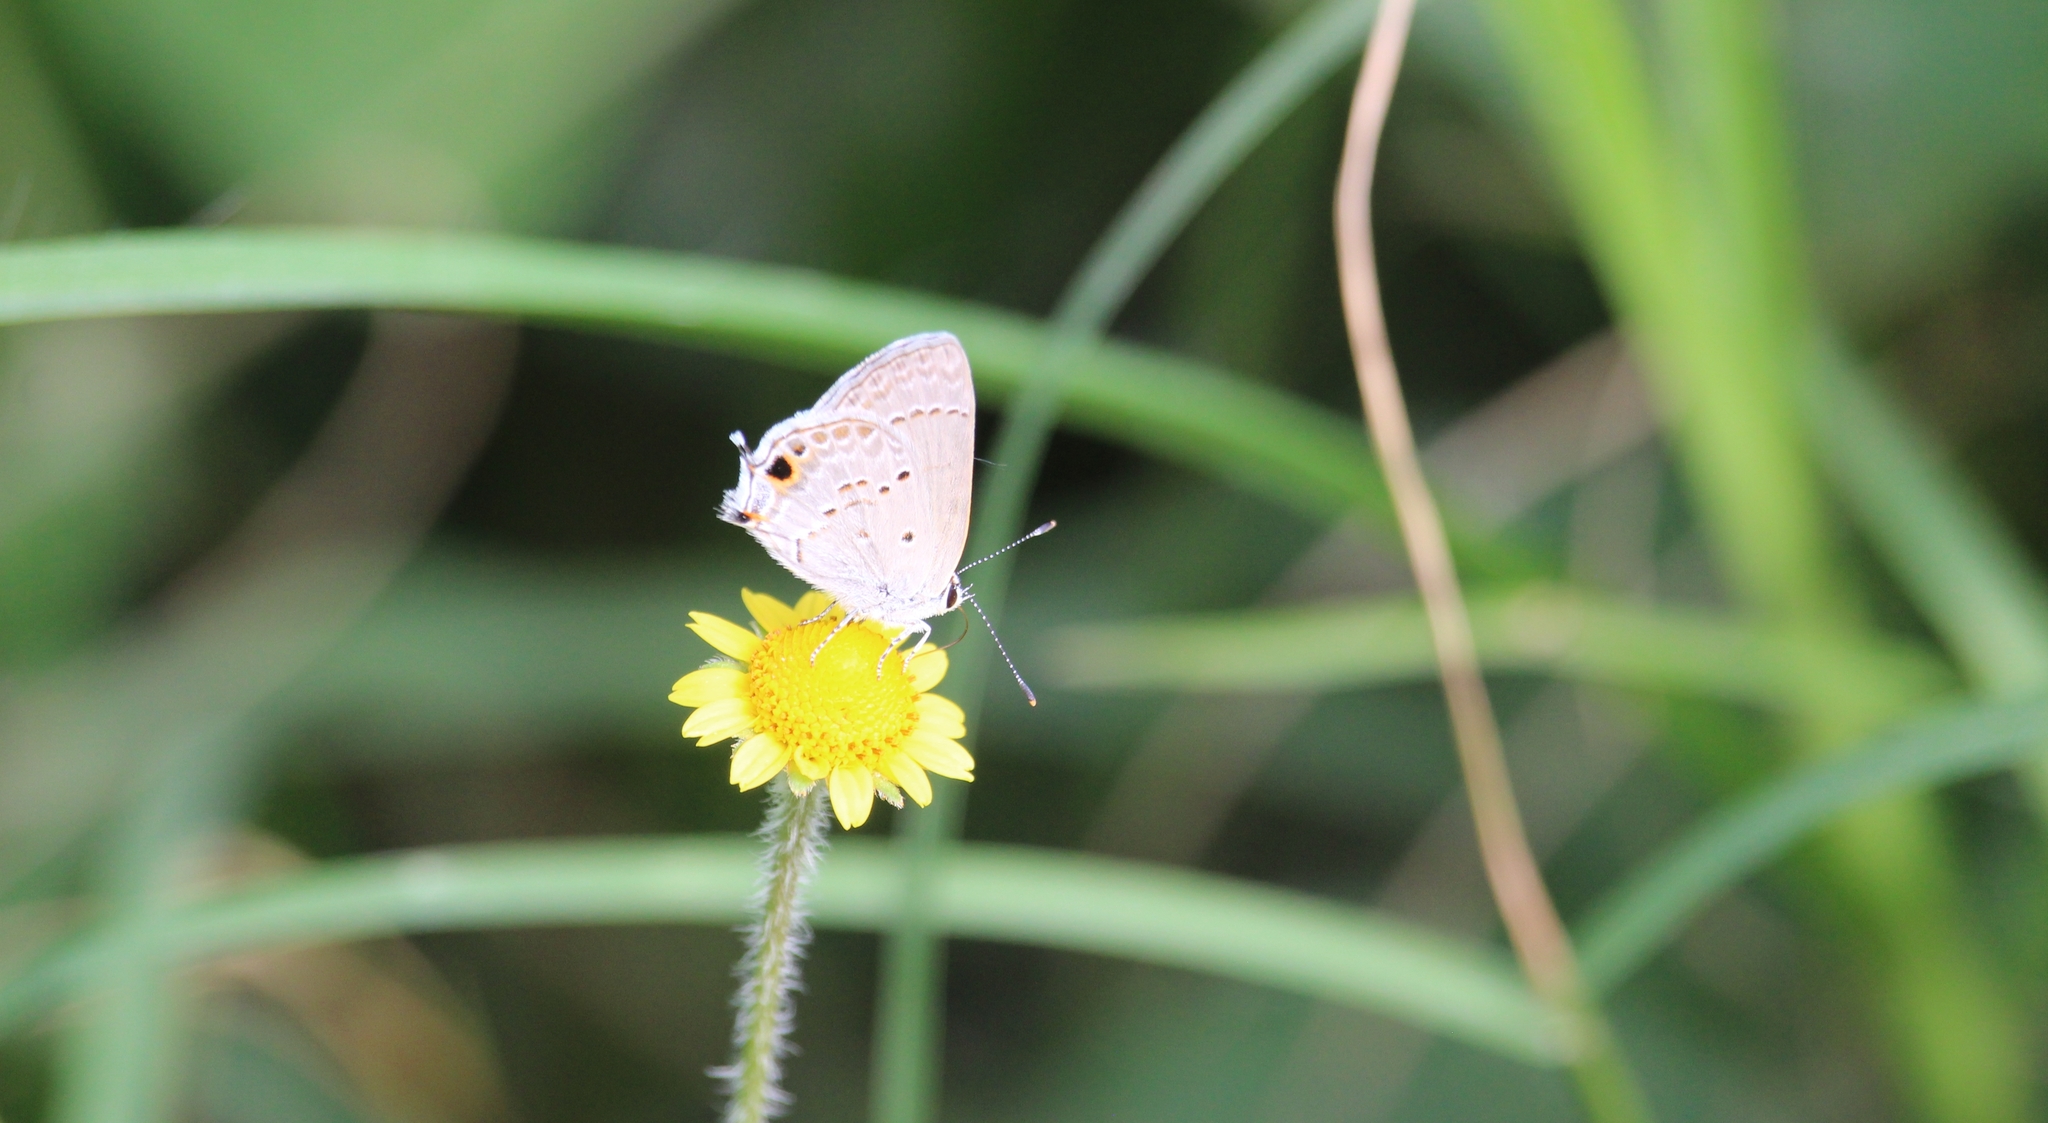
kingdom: Animalia
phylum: Arthropoda
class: Insecta
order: Lepidoptera
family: Lycaenidae
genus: Callicista
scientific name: Callicista columella
